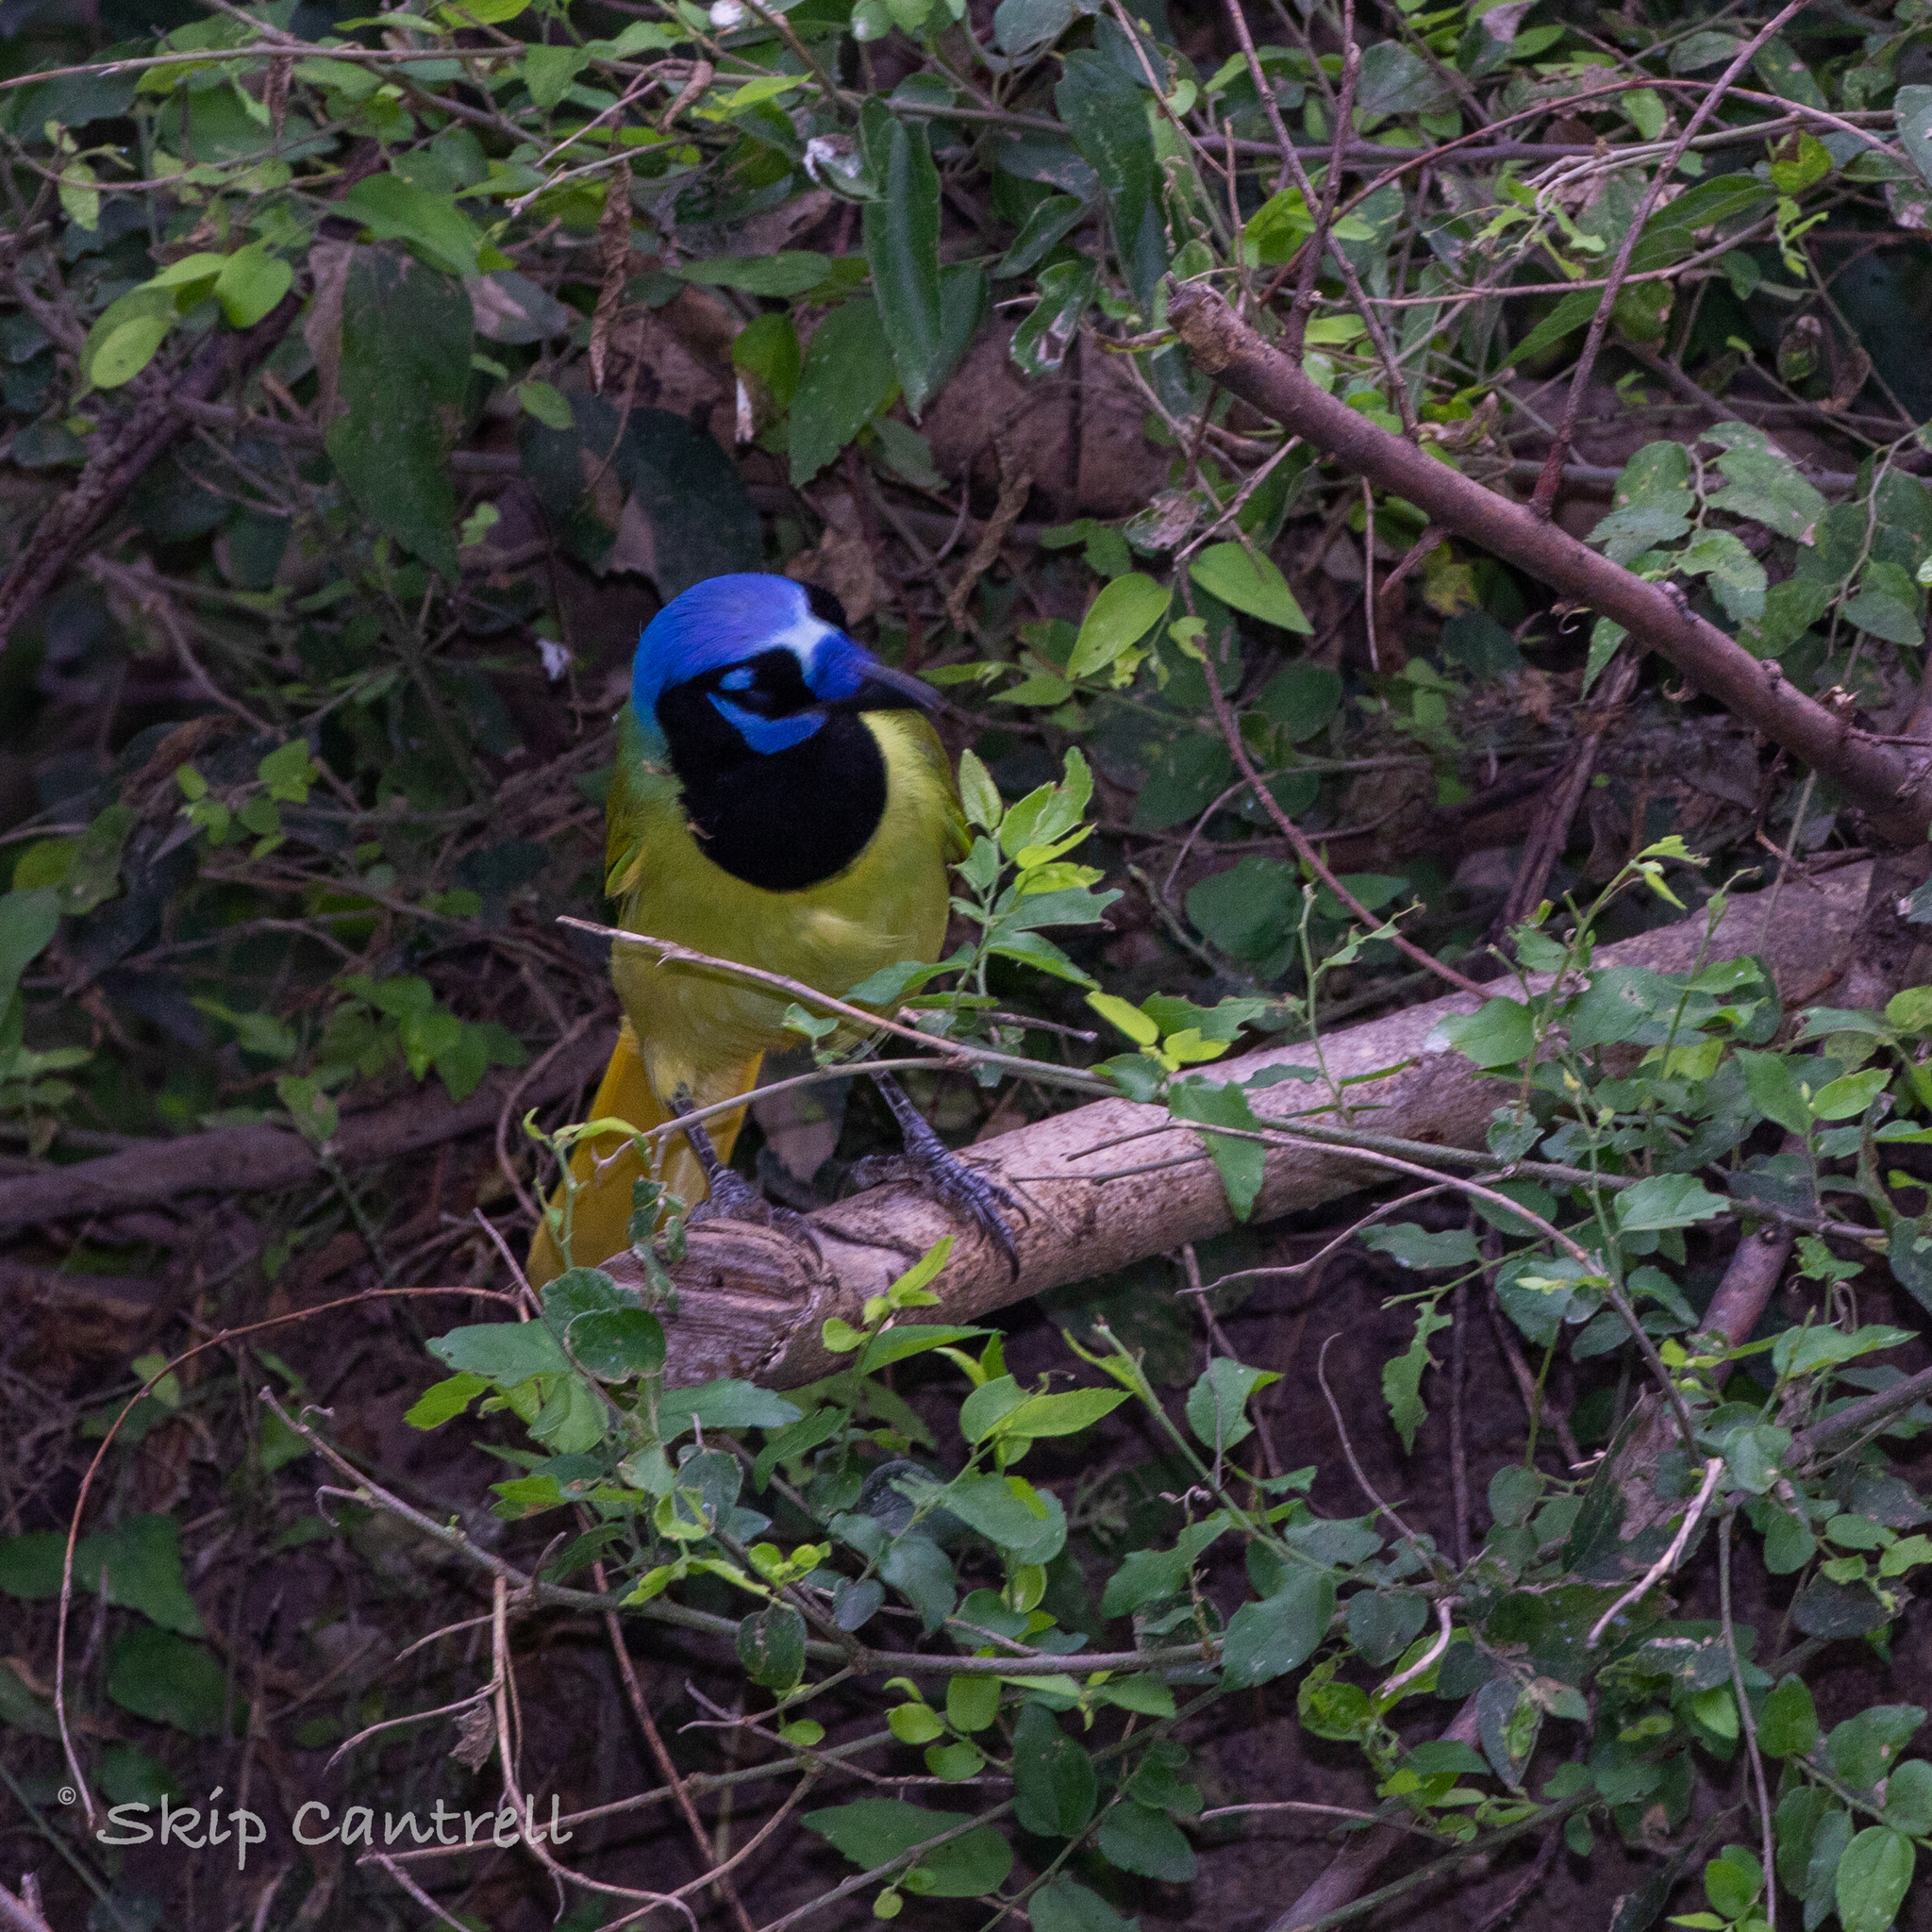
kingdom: Animalia
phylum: Chordata
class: Aves
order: Passeriformes
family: Corvidae
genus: Cyanocorax
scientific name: Cyanocorax yncas
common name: Green jay
